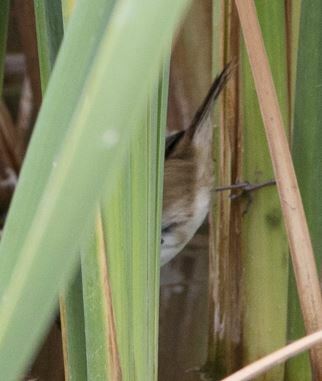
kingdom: Animalia
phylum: Chordata
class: Aves
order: Passeriformes
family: Furnariidae
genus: Phleocryptes
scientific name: Phleocryptes melanops
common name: Wren-like rushbird
